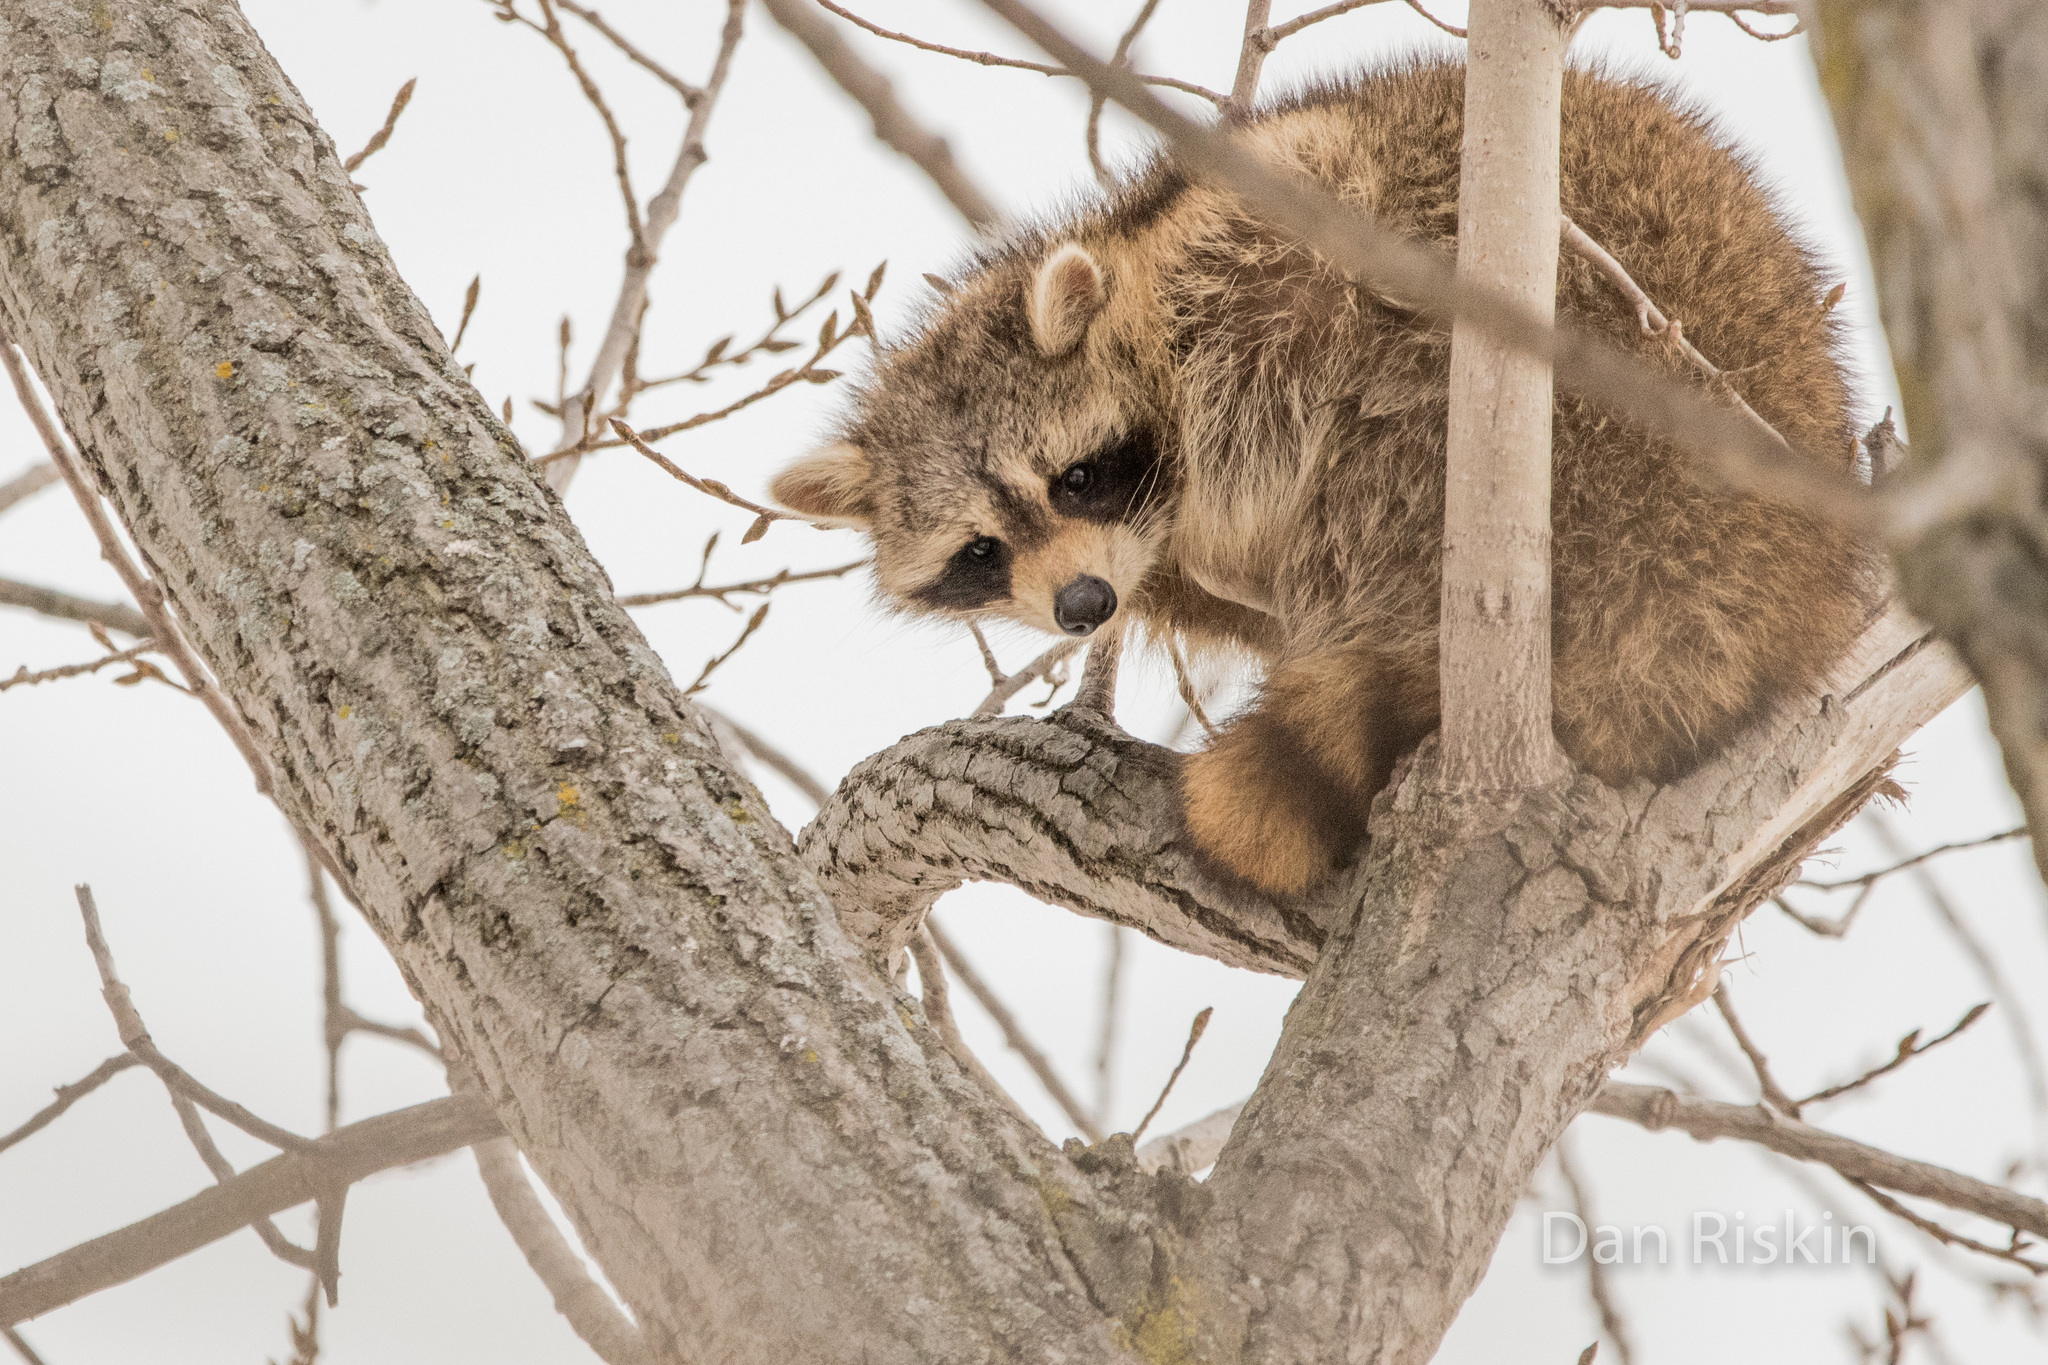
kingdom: Animalia
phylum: Chordata
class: Mammalia
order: Carnivora
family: Procyonidae
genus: Procyon
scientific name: Procyon lotor
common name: Raccoon
